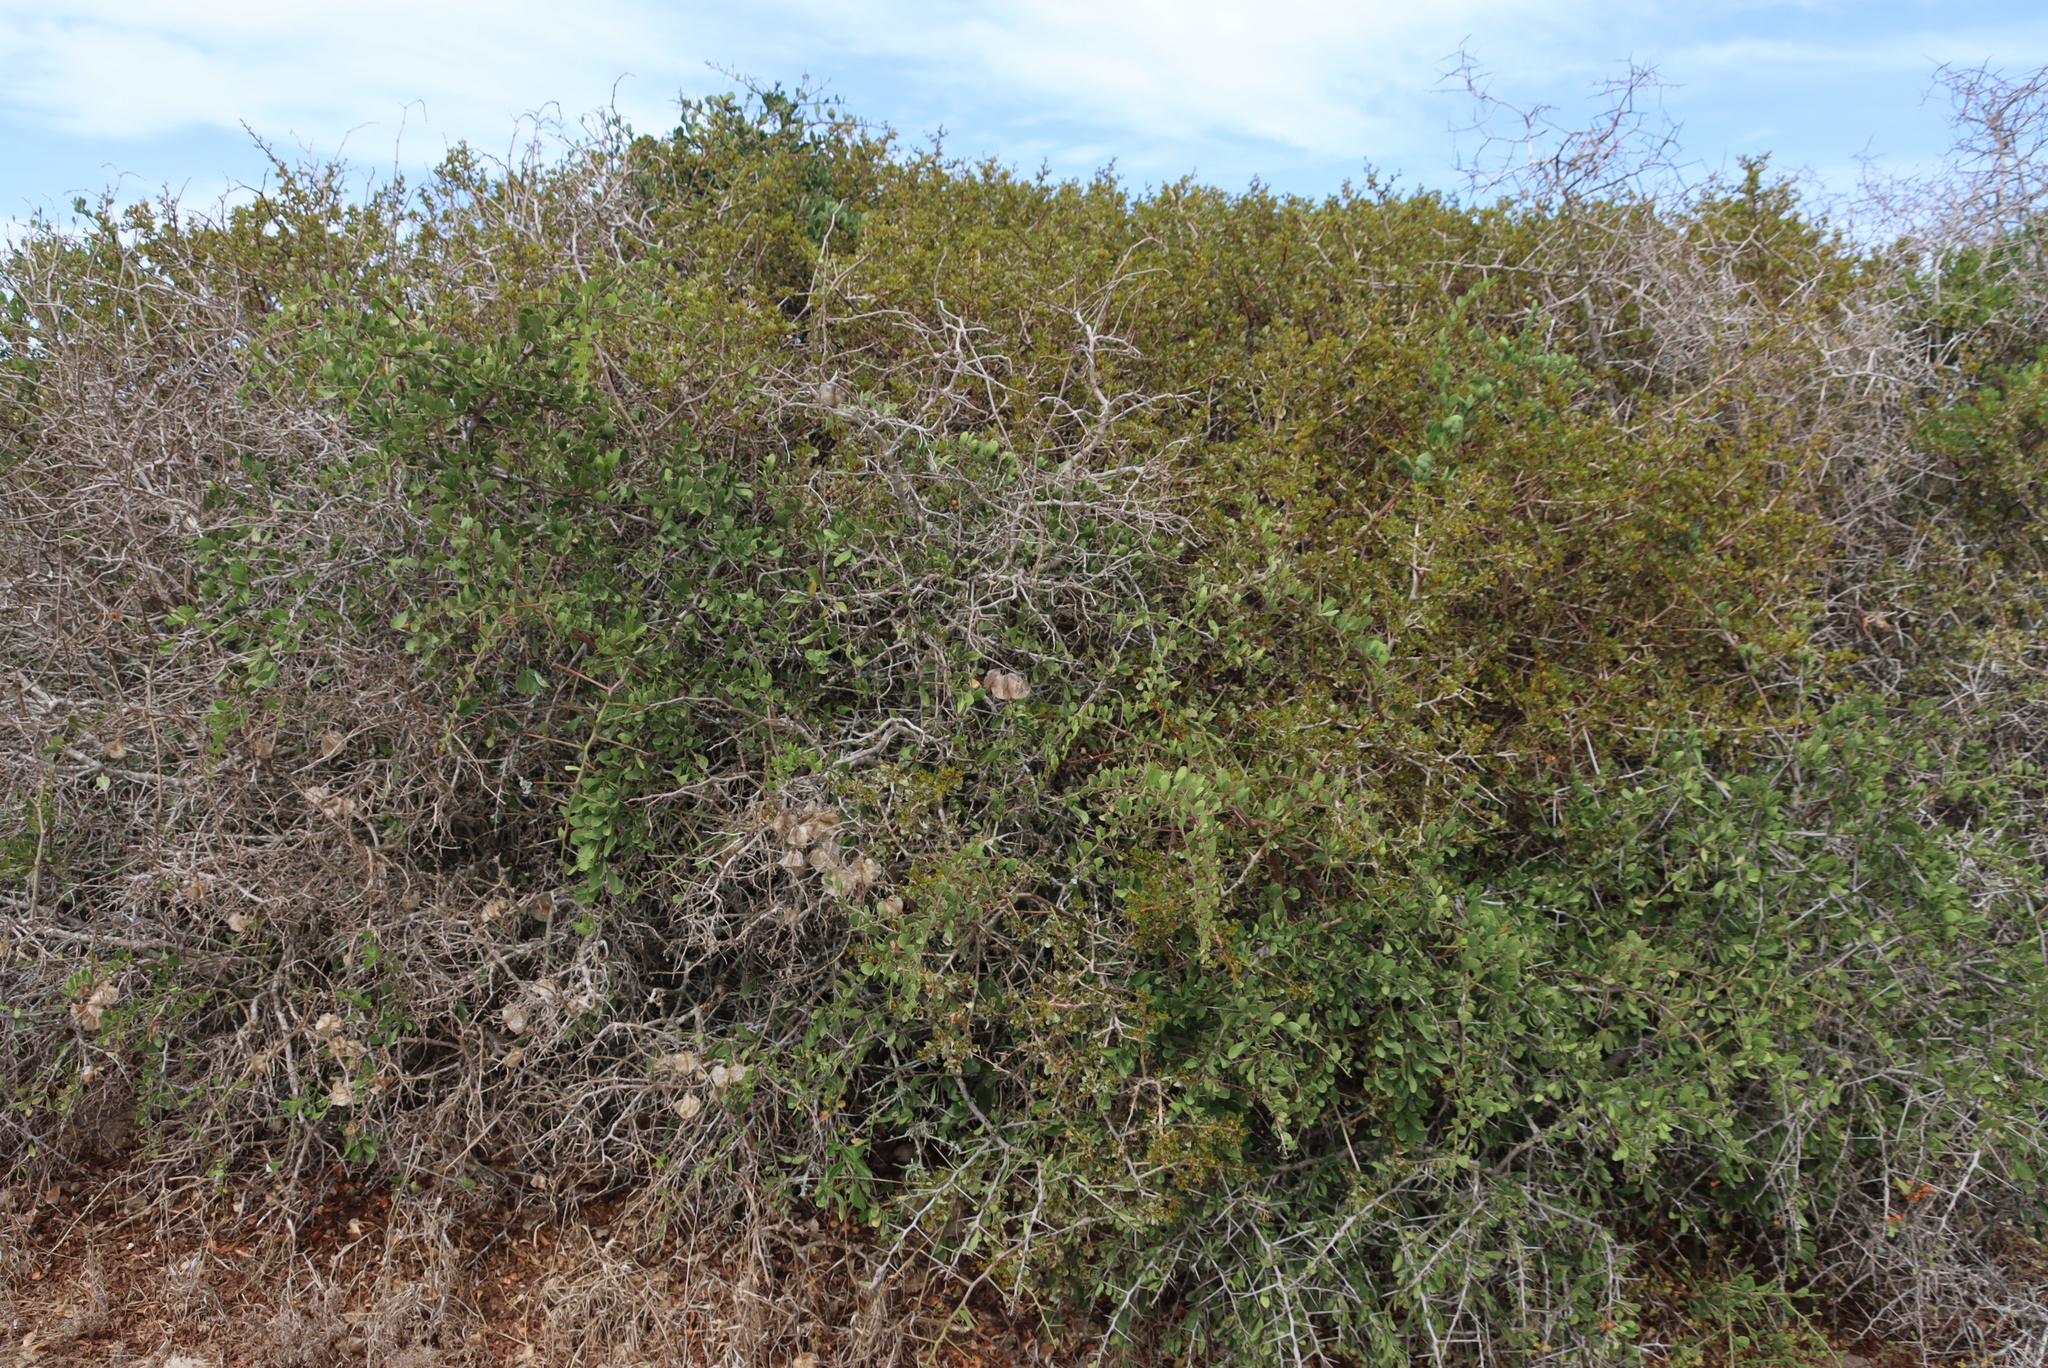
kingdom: Plantae
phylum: Tracheophyta
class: Magnoliopsida
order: Caryophyllales
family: Aizoaceae
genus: Tetragonia
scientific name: Tetragonia fruticosa
